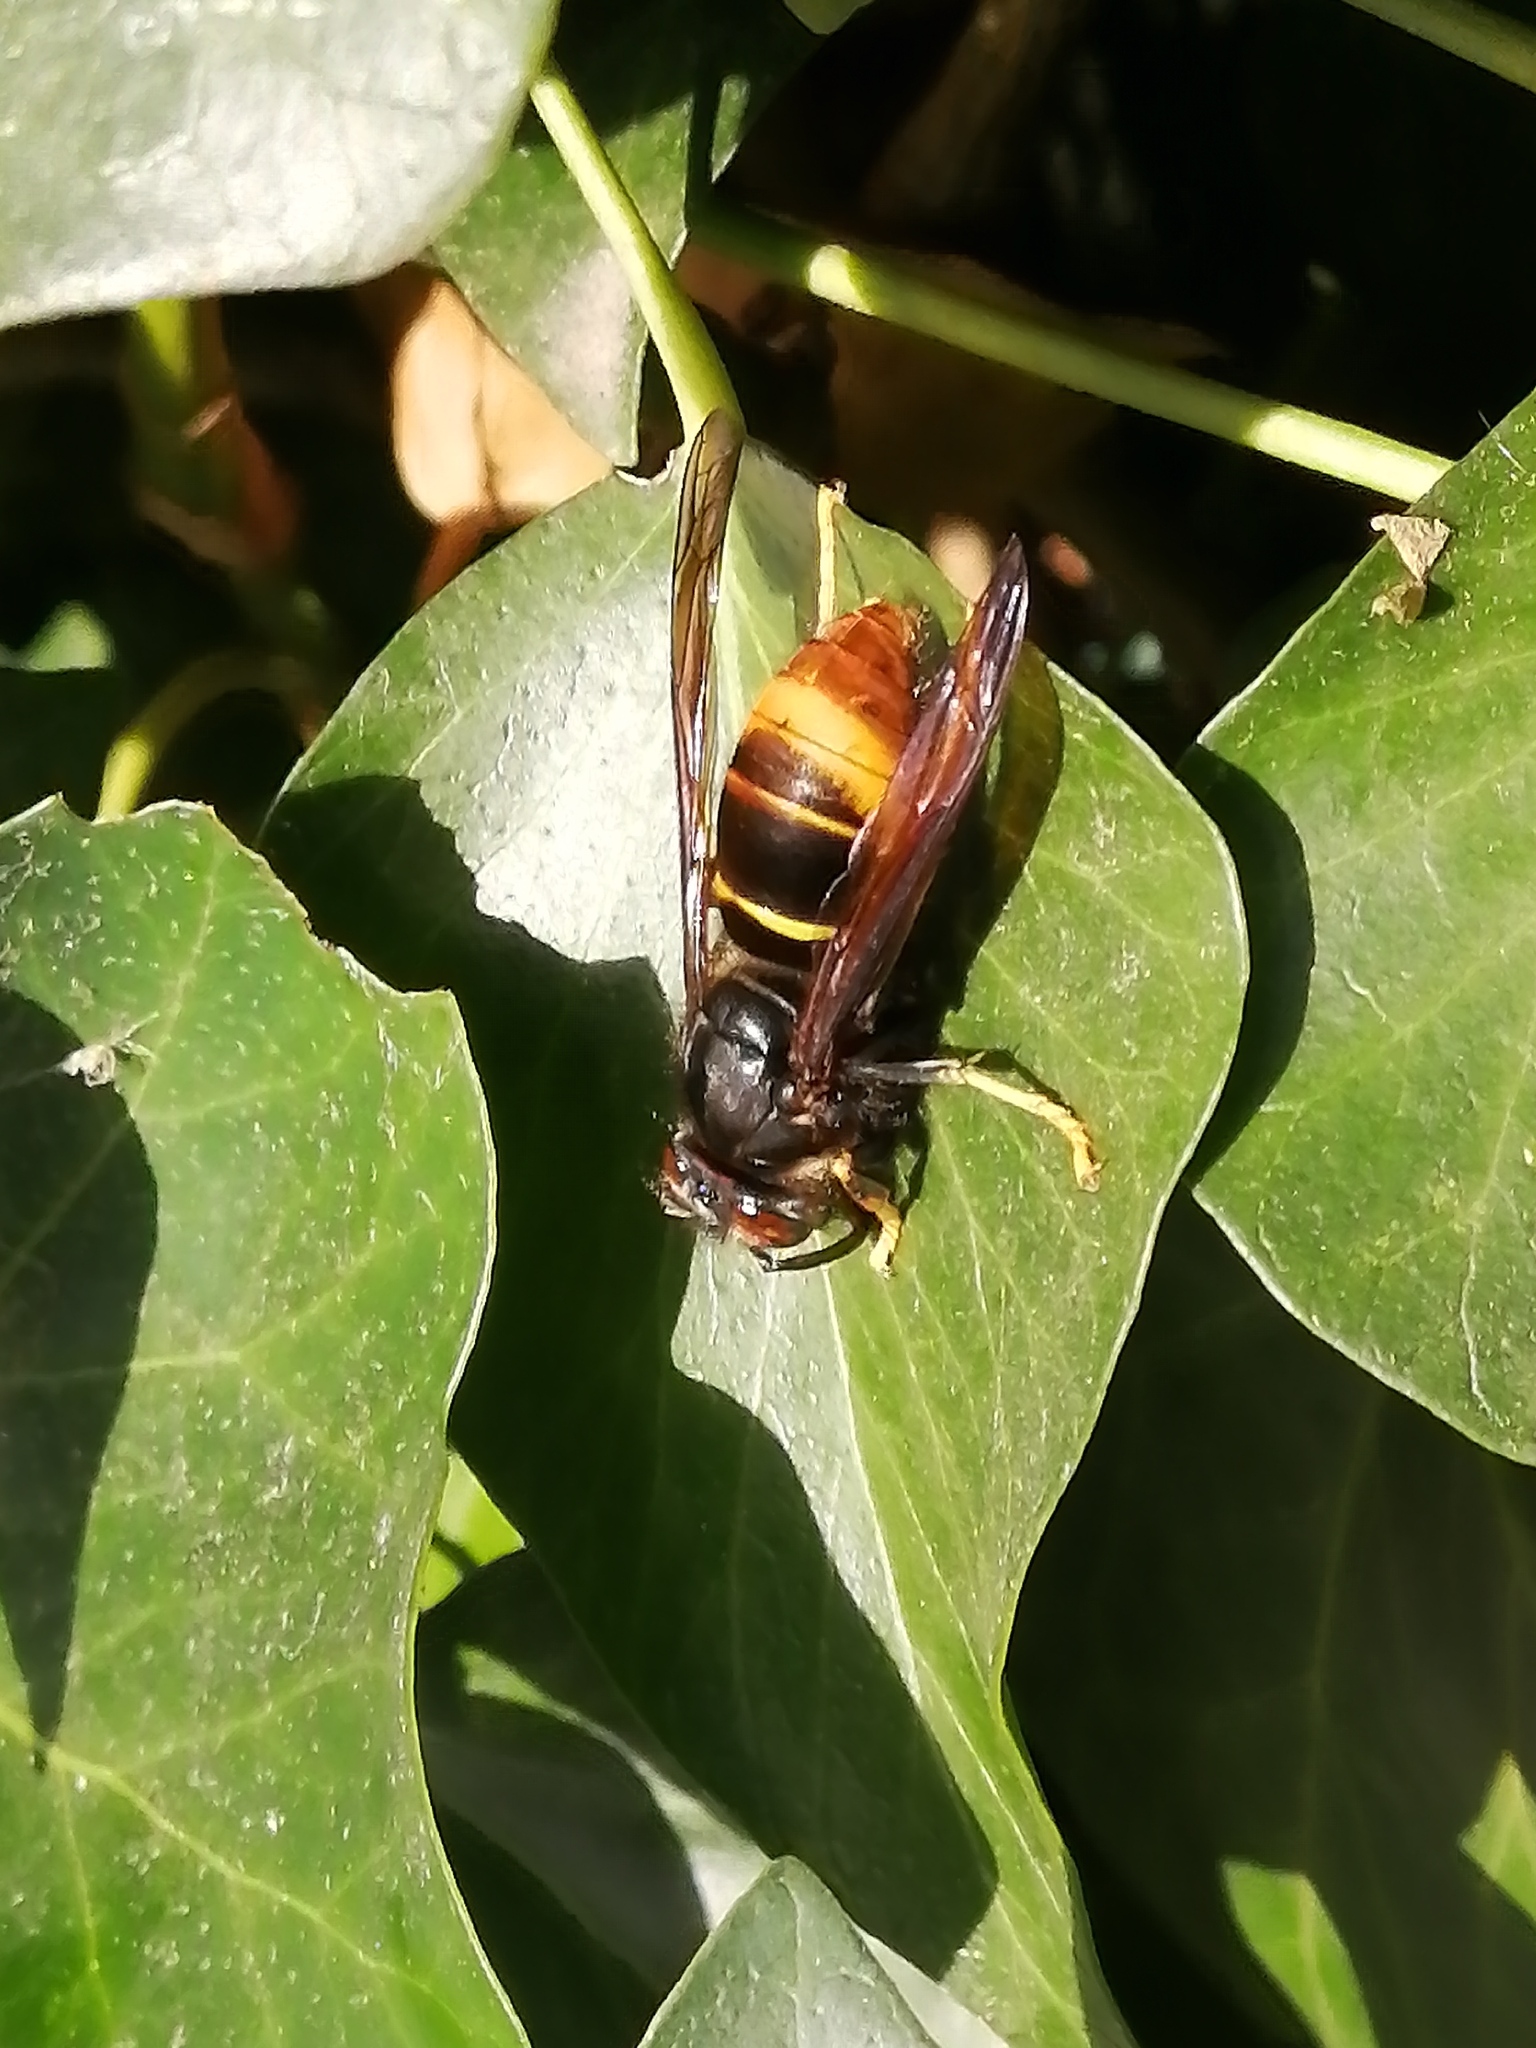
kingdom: Animalia
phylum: Arthropoda
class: Insecta
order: Hymenoptera
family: Vespidae
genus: Vespa
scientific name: Vespa velutina
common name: Asian hornet
